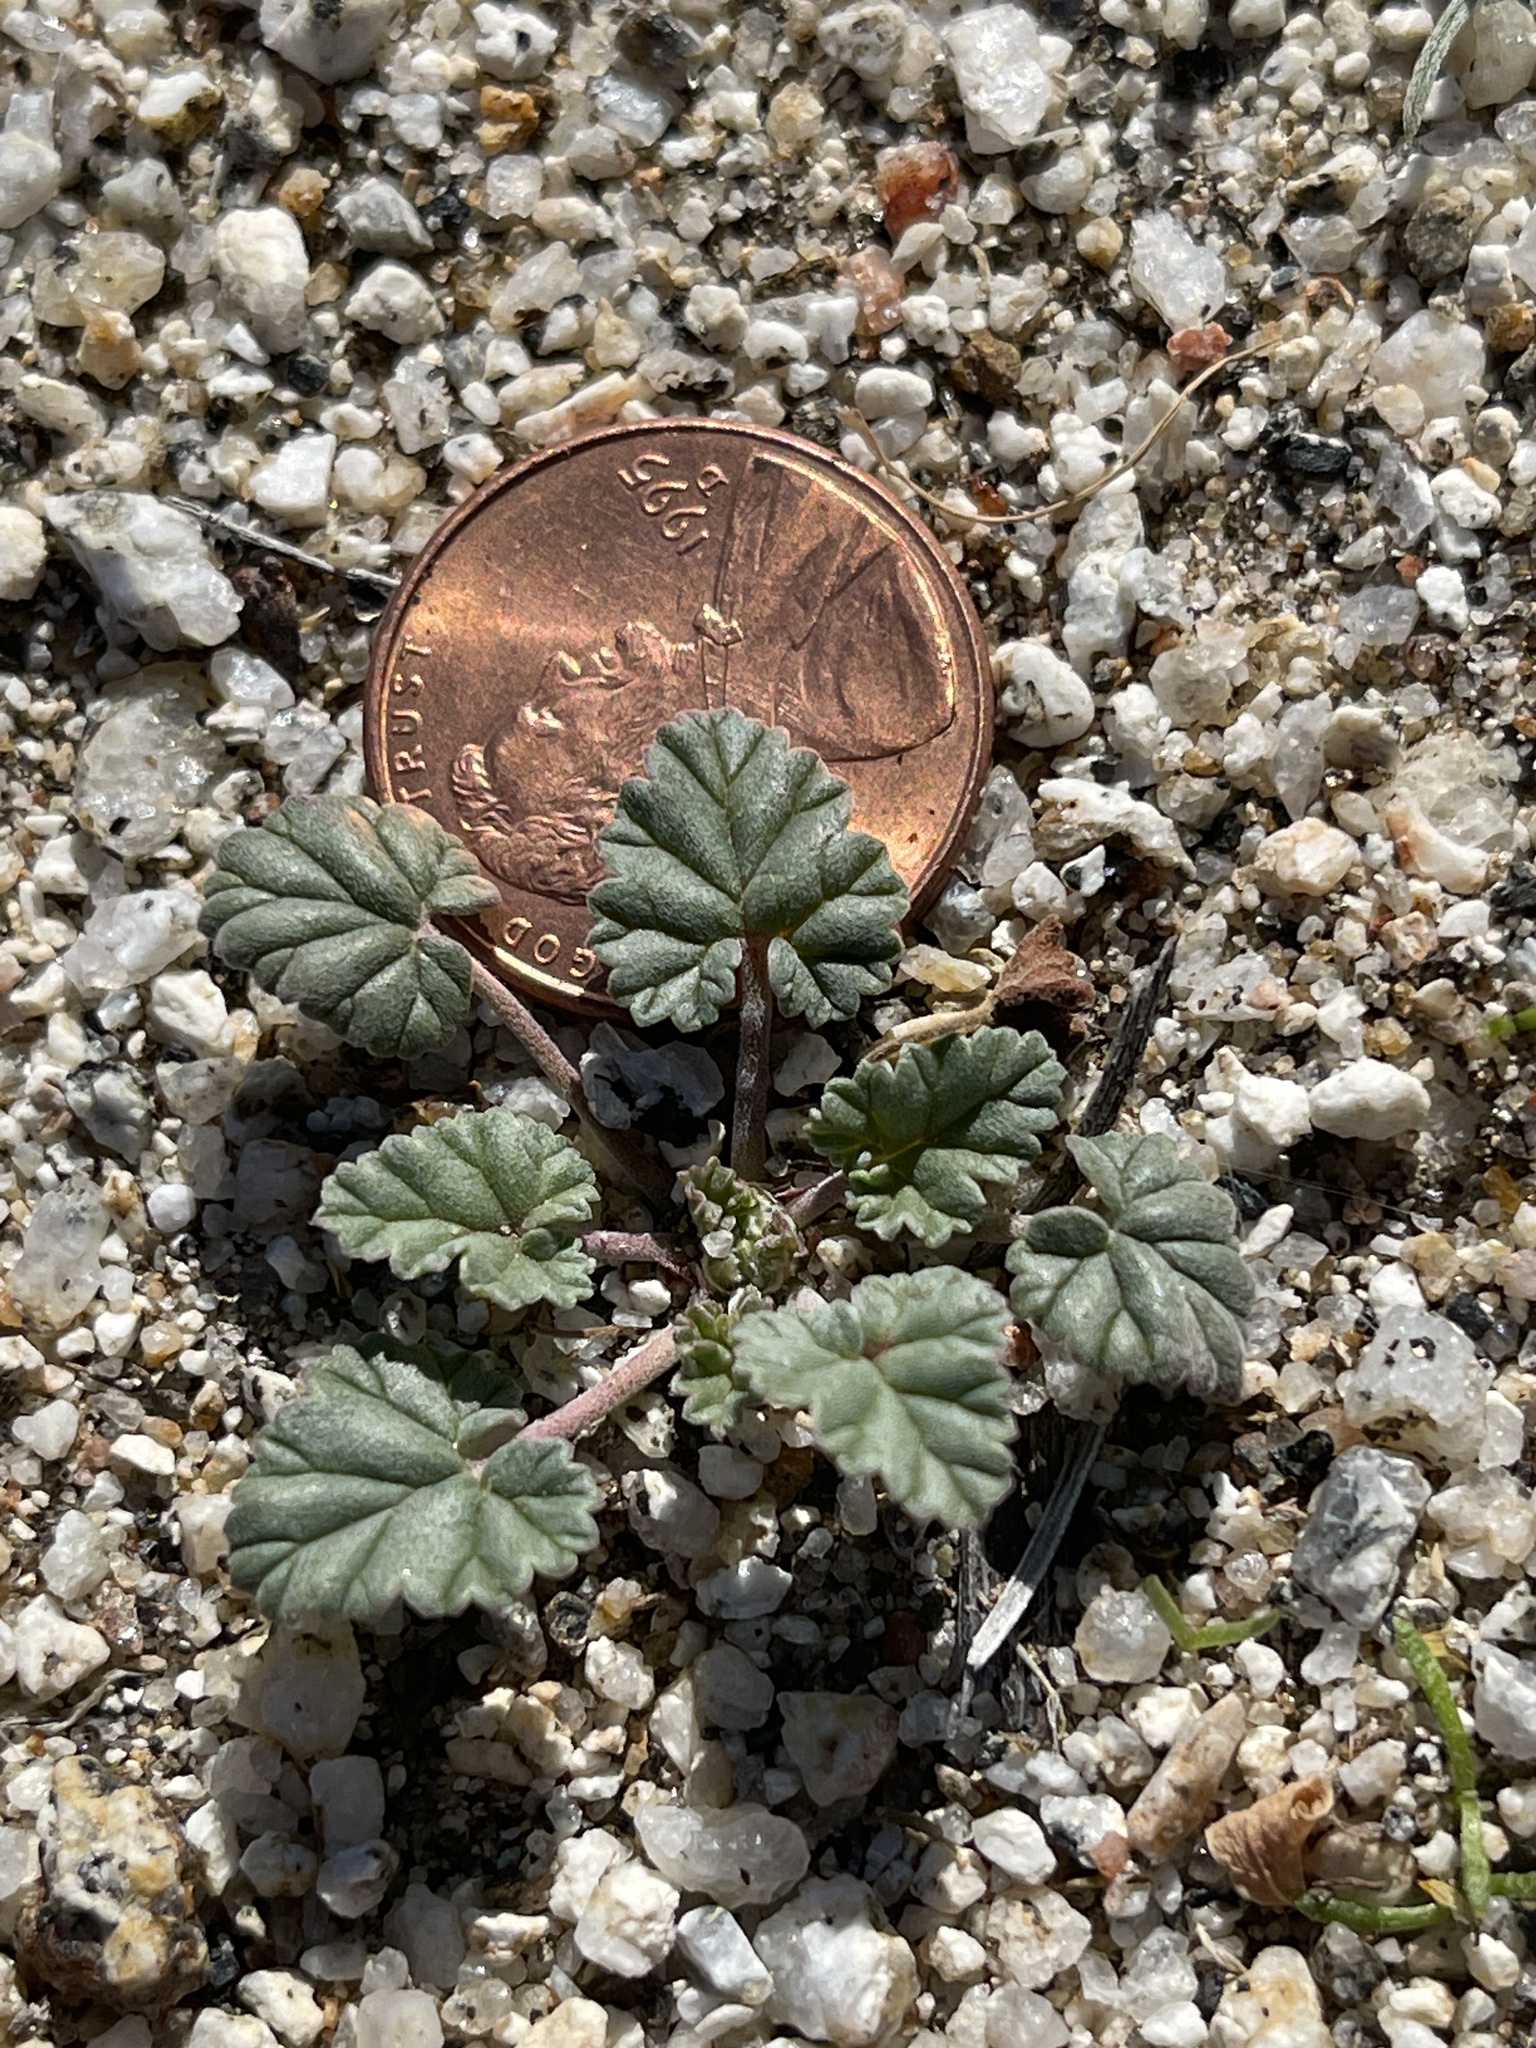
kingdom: Plantae
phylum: Tracheophyta
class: Magnoliopsida
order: Geraniales
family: Geraniaceae
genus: Erodium
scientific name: Erodium texanum
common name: Texas stork's-bill
